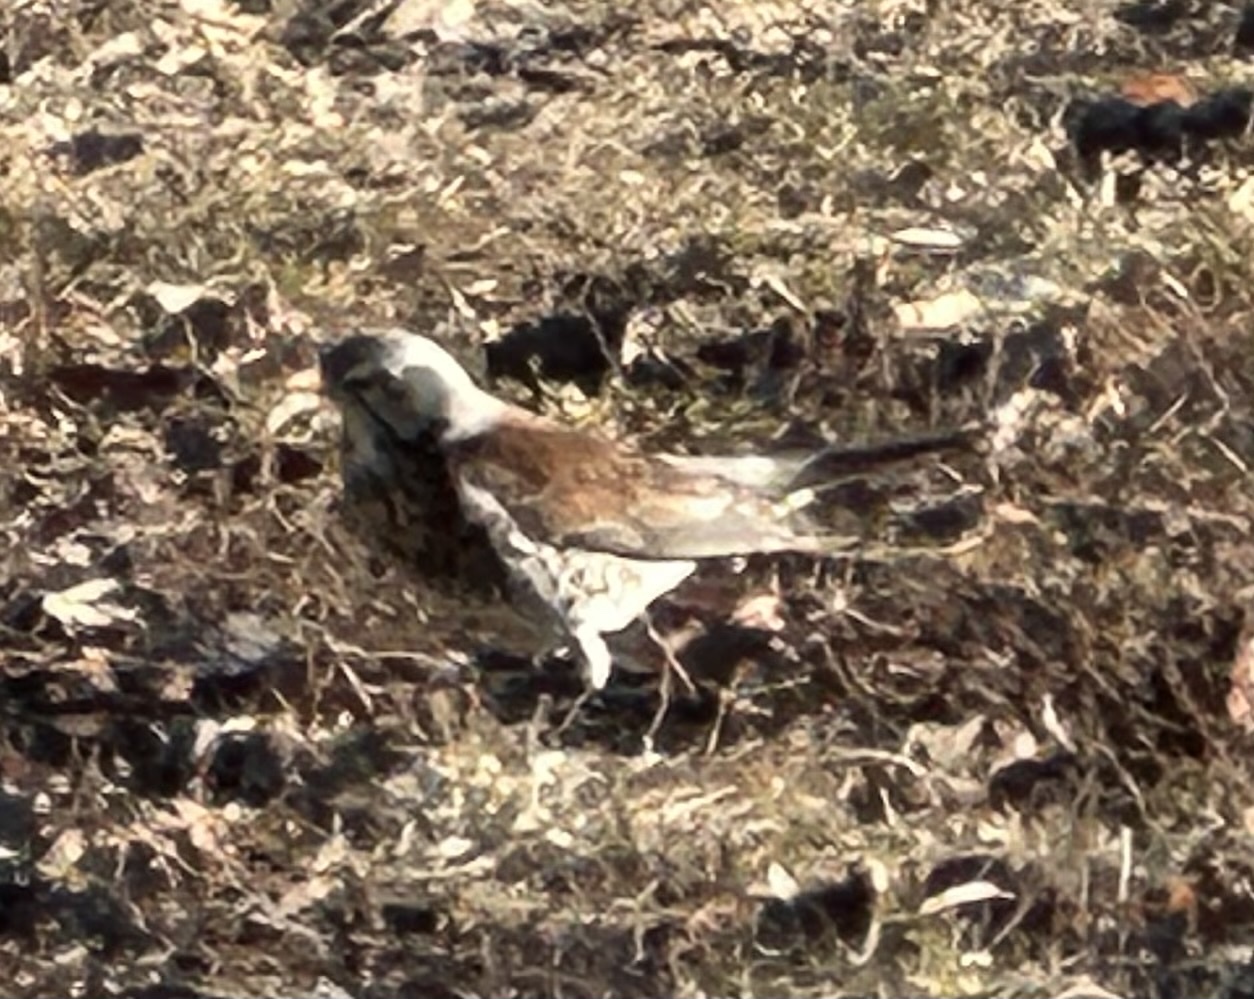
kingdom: Animalia
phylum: Chordata
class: Aves
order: Passeriformes
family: Turdidae
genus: Turdus
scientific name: Turdus pilaris
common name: Fieldfare
